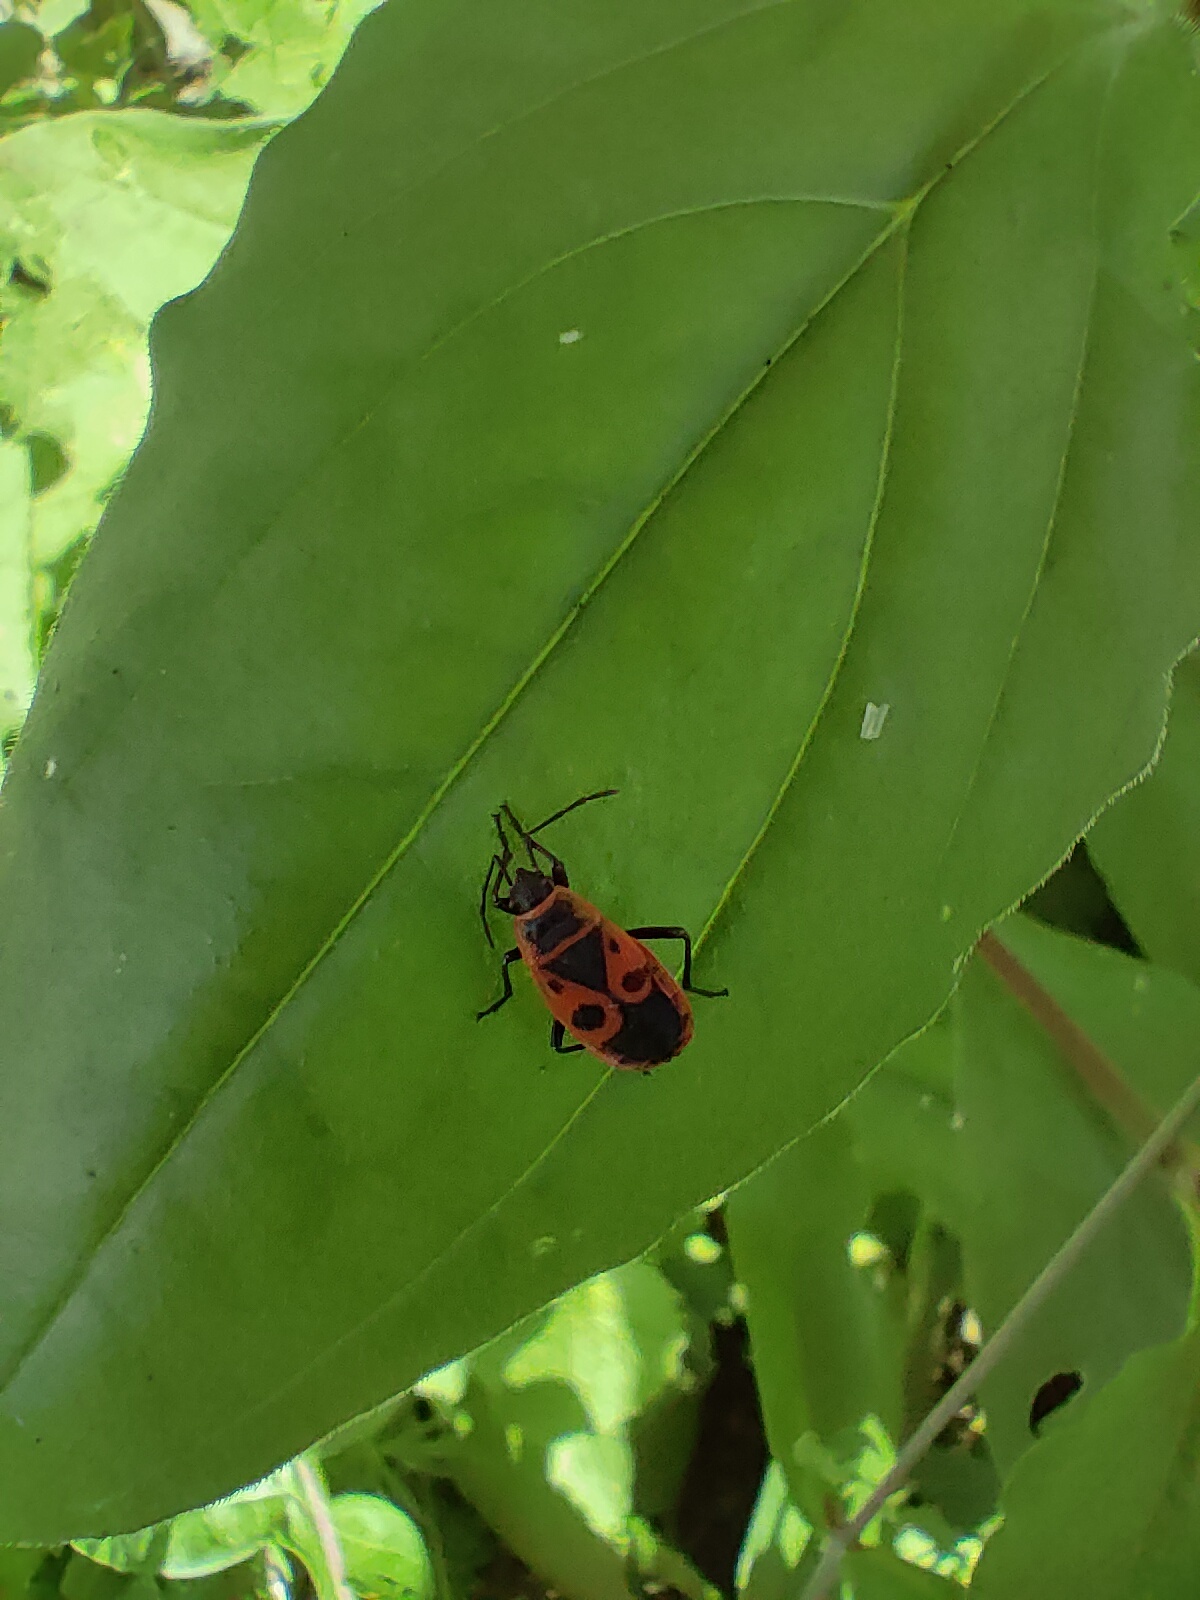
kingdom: Animalia
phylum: Arthropoda
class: Insecta
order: Hemiptera
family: Pyrrhocoridae
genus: Pyrrhocoris
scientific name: Pyrrhocoris apterus
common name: Firebug
